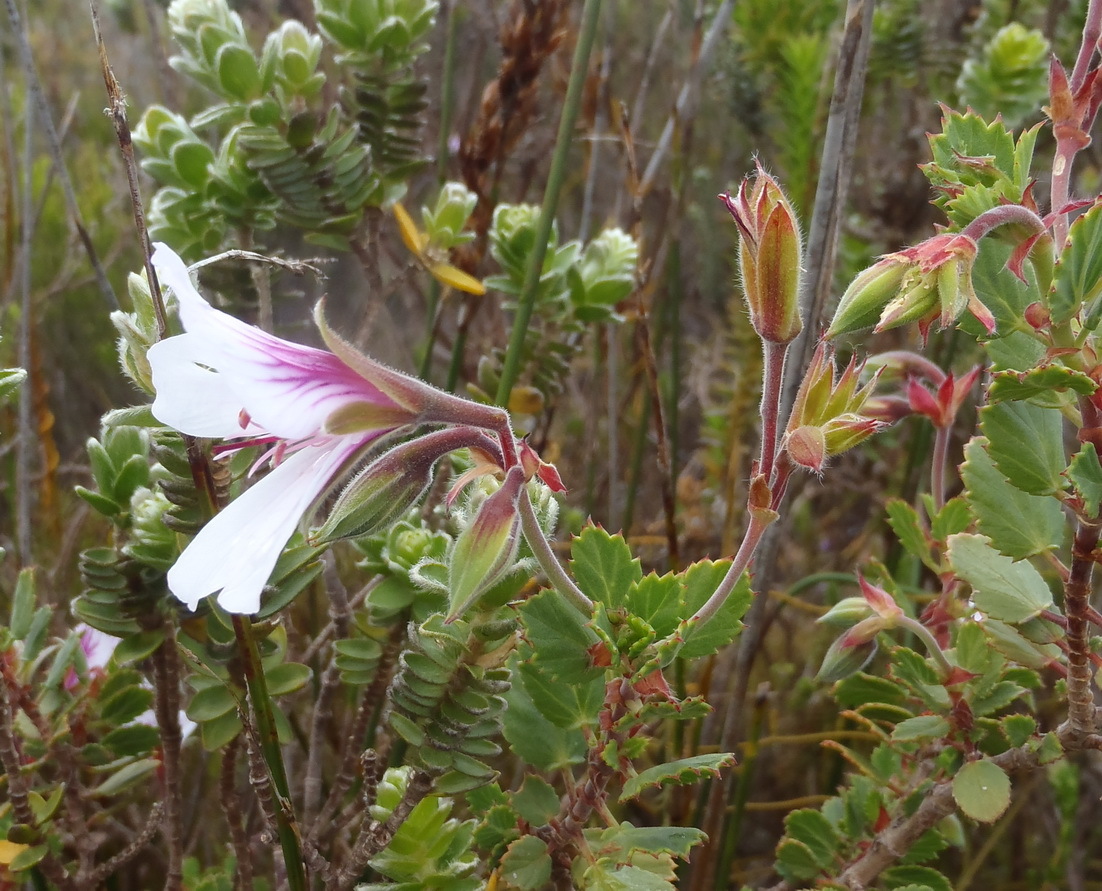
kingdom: Plantae
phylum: Tracheophyta
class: Magnoliopsida
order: Geraniales
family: Geraniaceae
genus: Pelargonium
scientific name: Pelargonium betulinum
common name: Birch-leaf pelargonium
